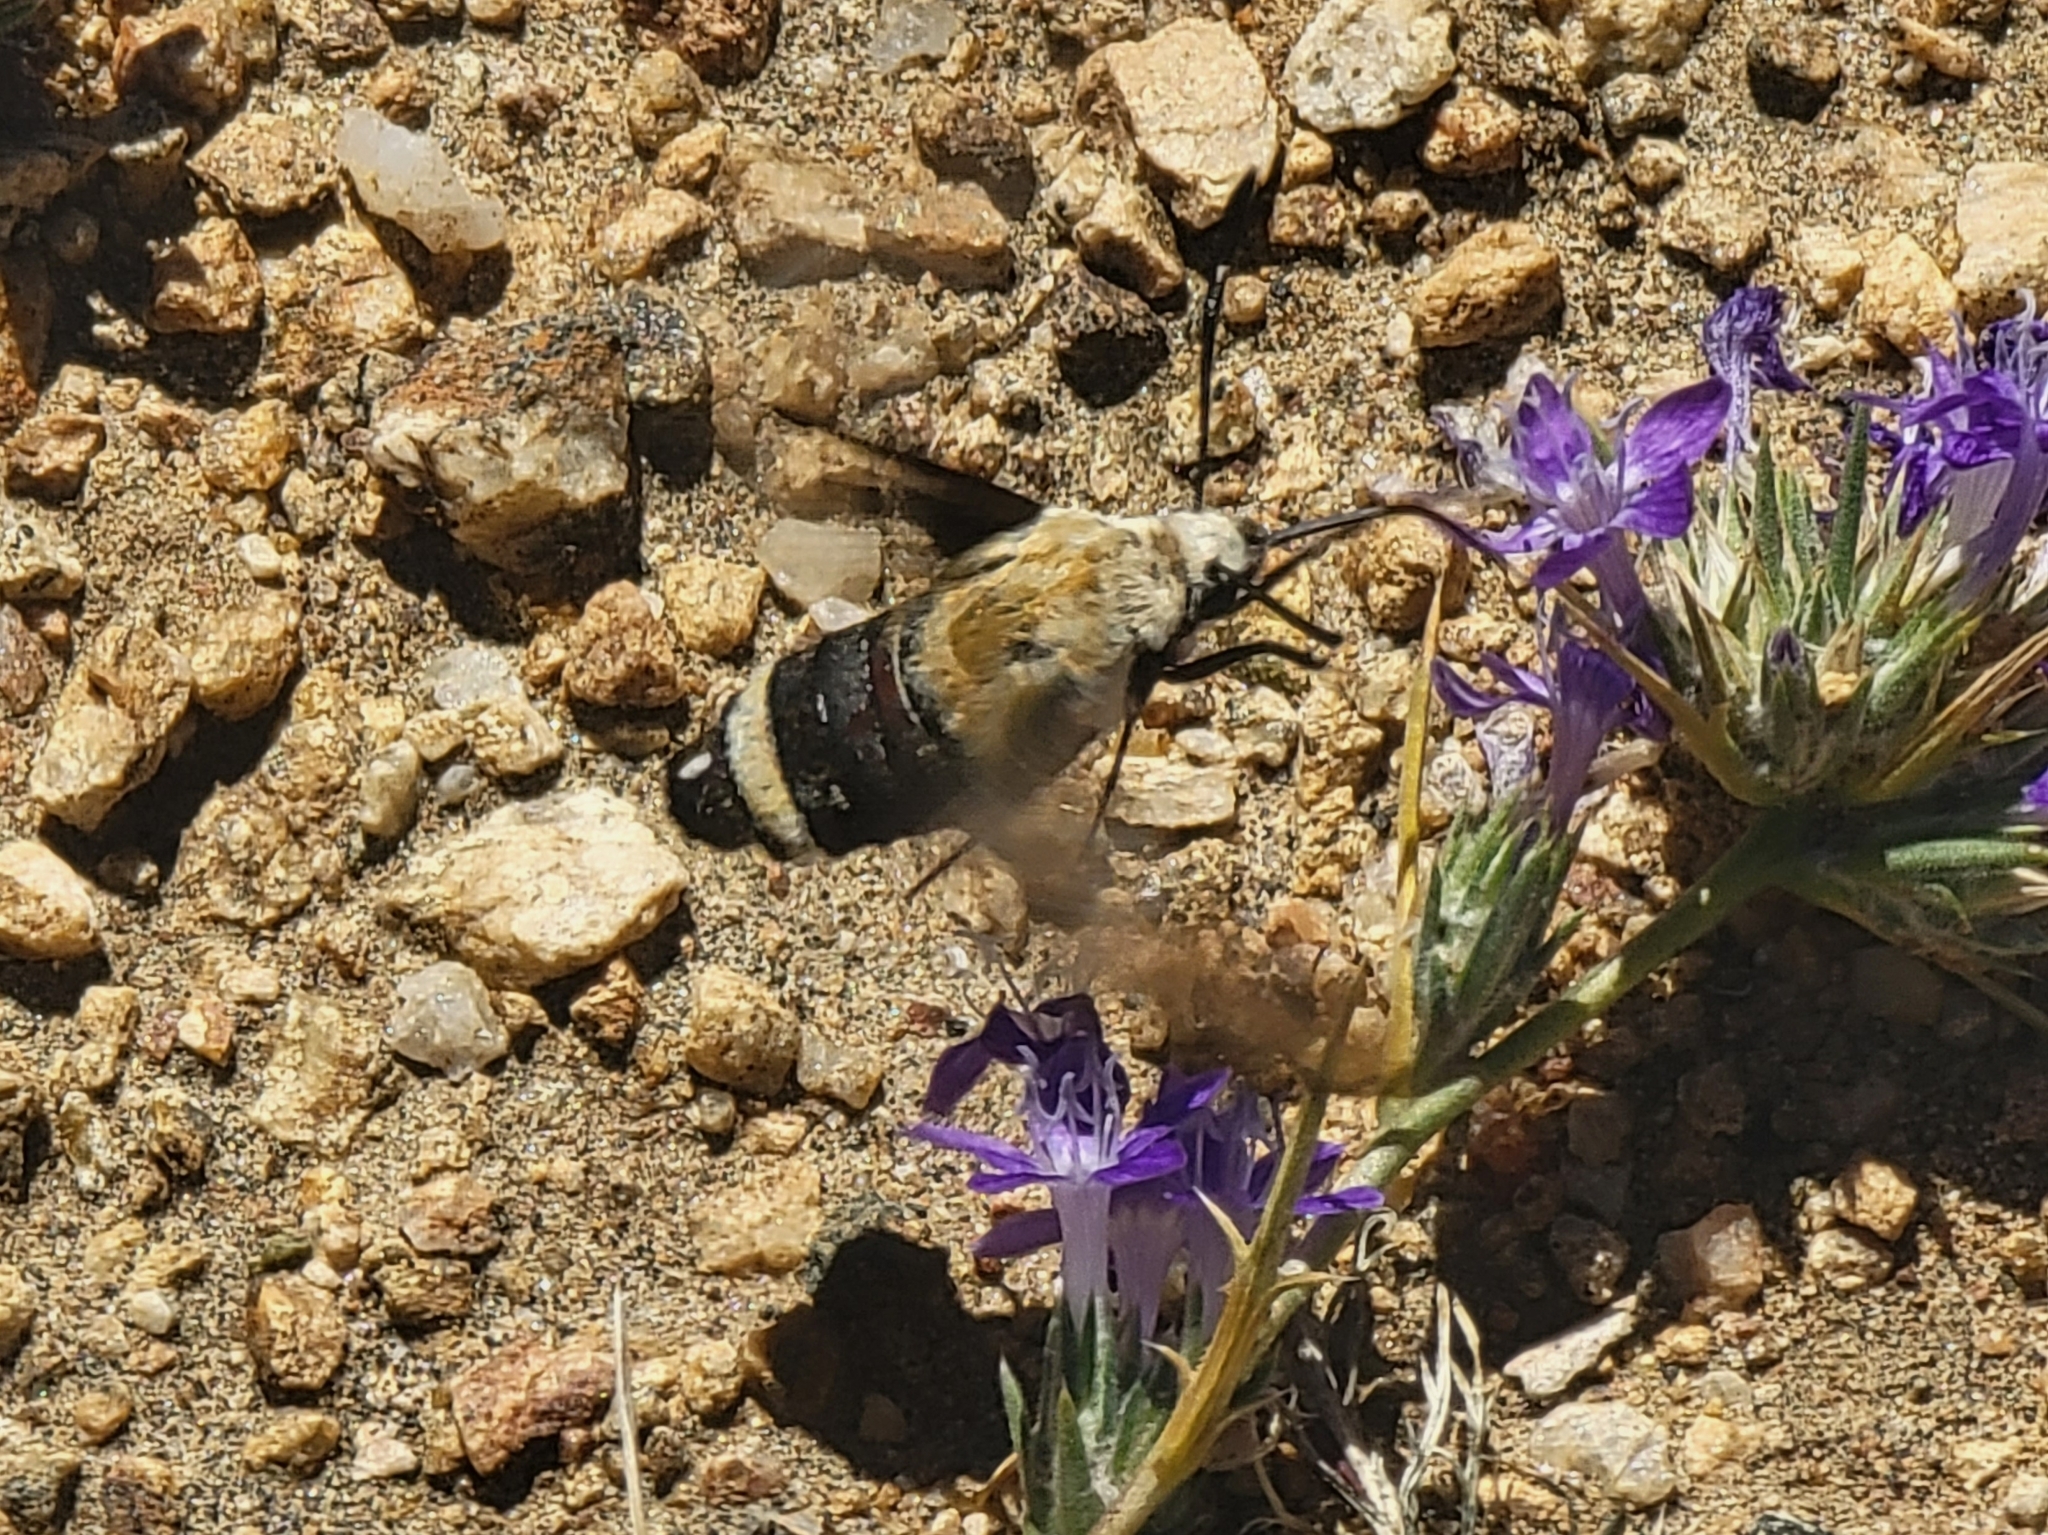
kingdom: Animalia
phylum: Arthropoda
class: Insecta
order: Lepidoptera
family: Sphingidae
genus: Hemaris
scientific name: Hemaris thetis
